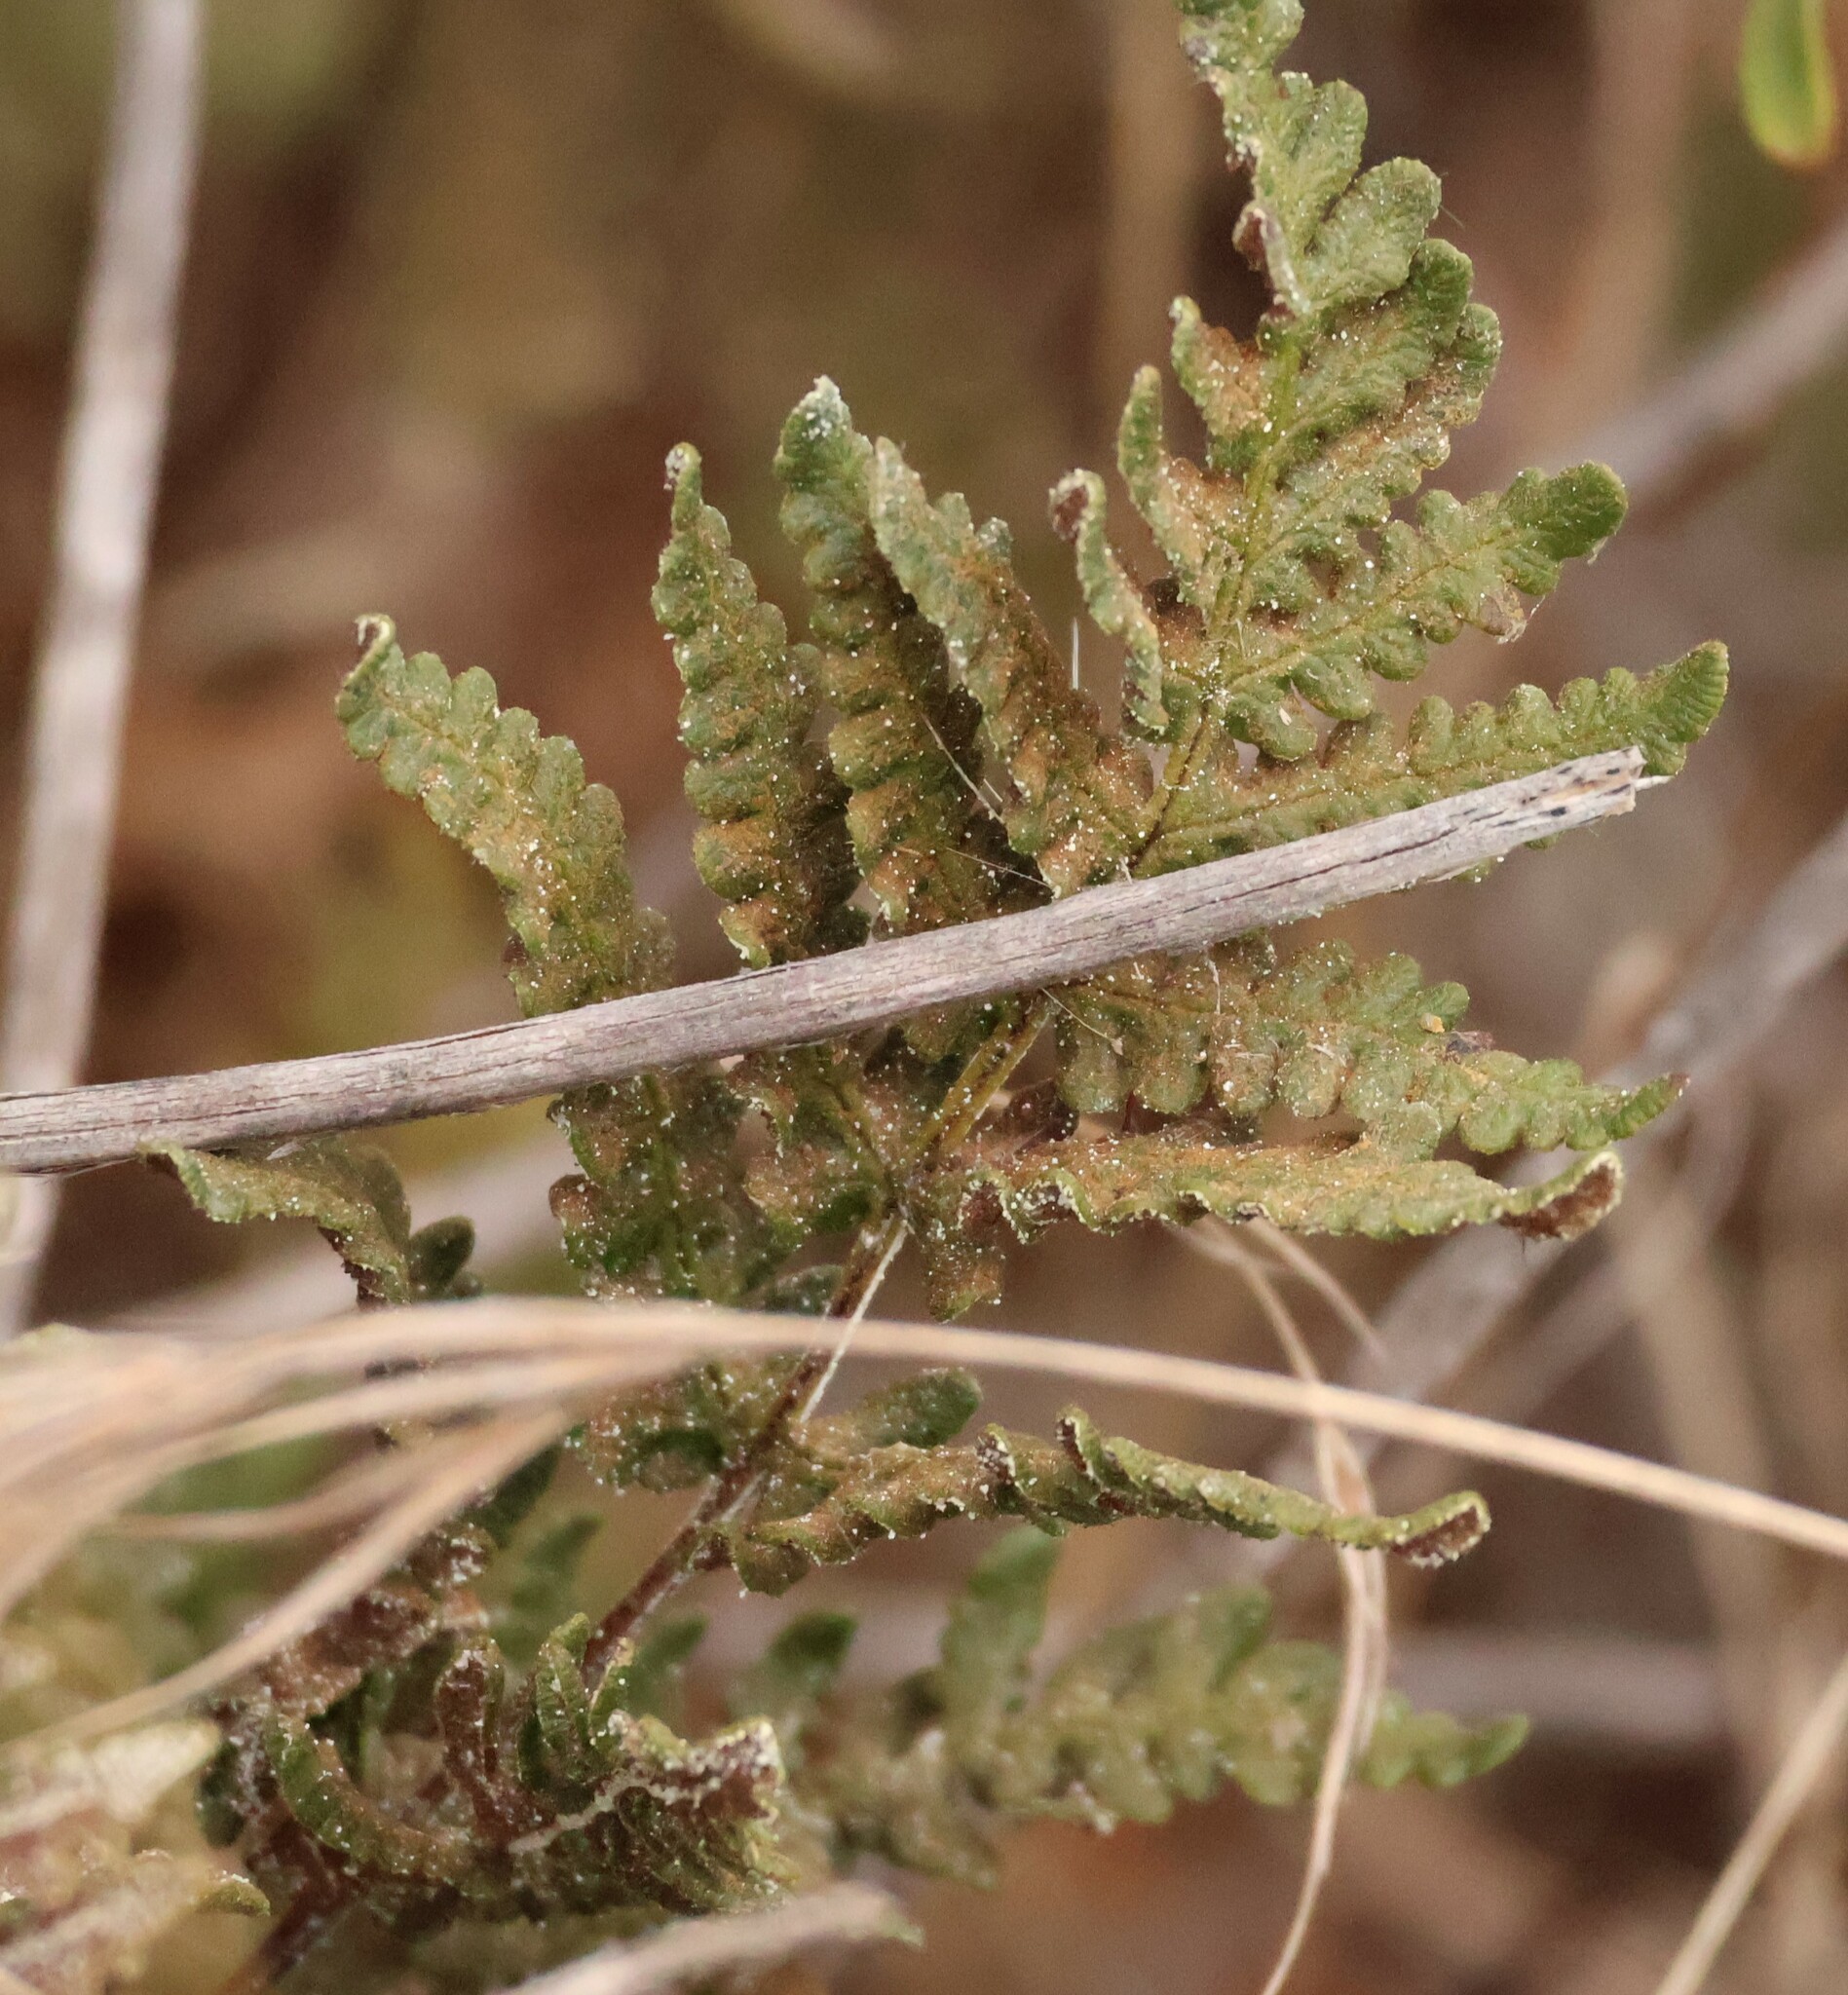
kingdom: Plantae
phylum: Tracheophyta
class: Polypodiopsida
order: Polypodiales
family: Pteridaceae
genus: Pentagramma
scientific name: Pentagramma triangularis
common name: Gold fern
